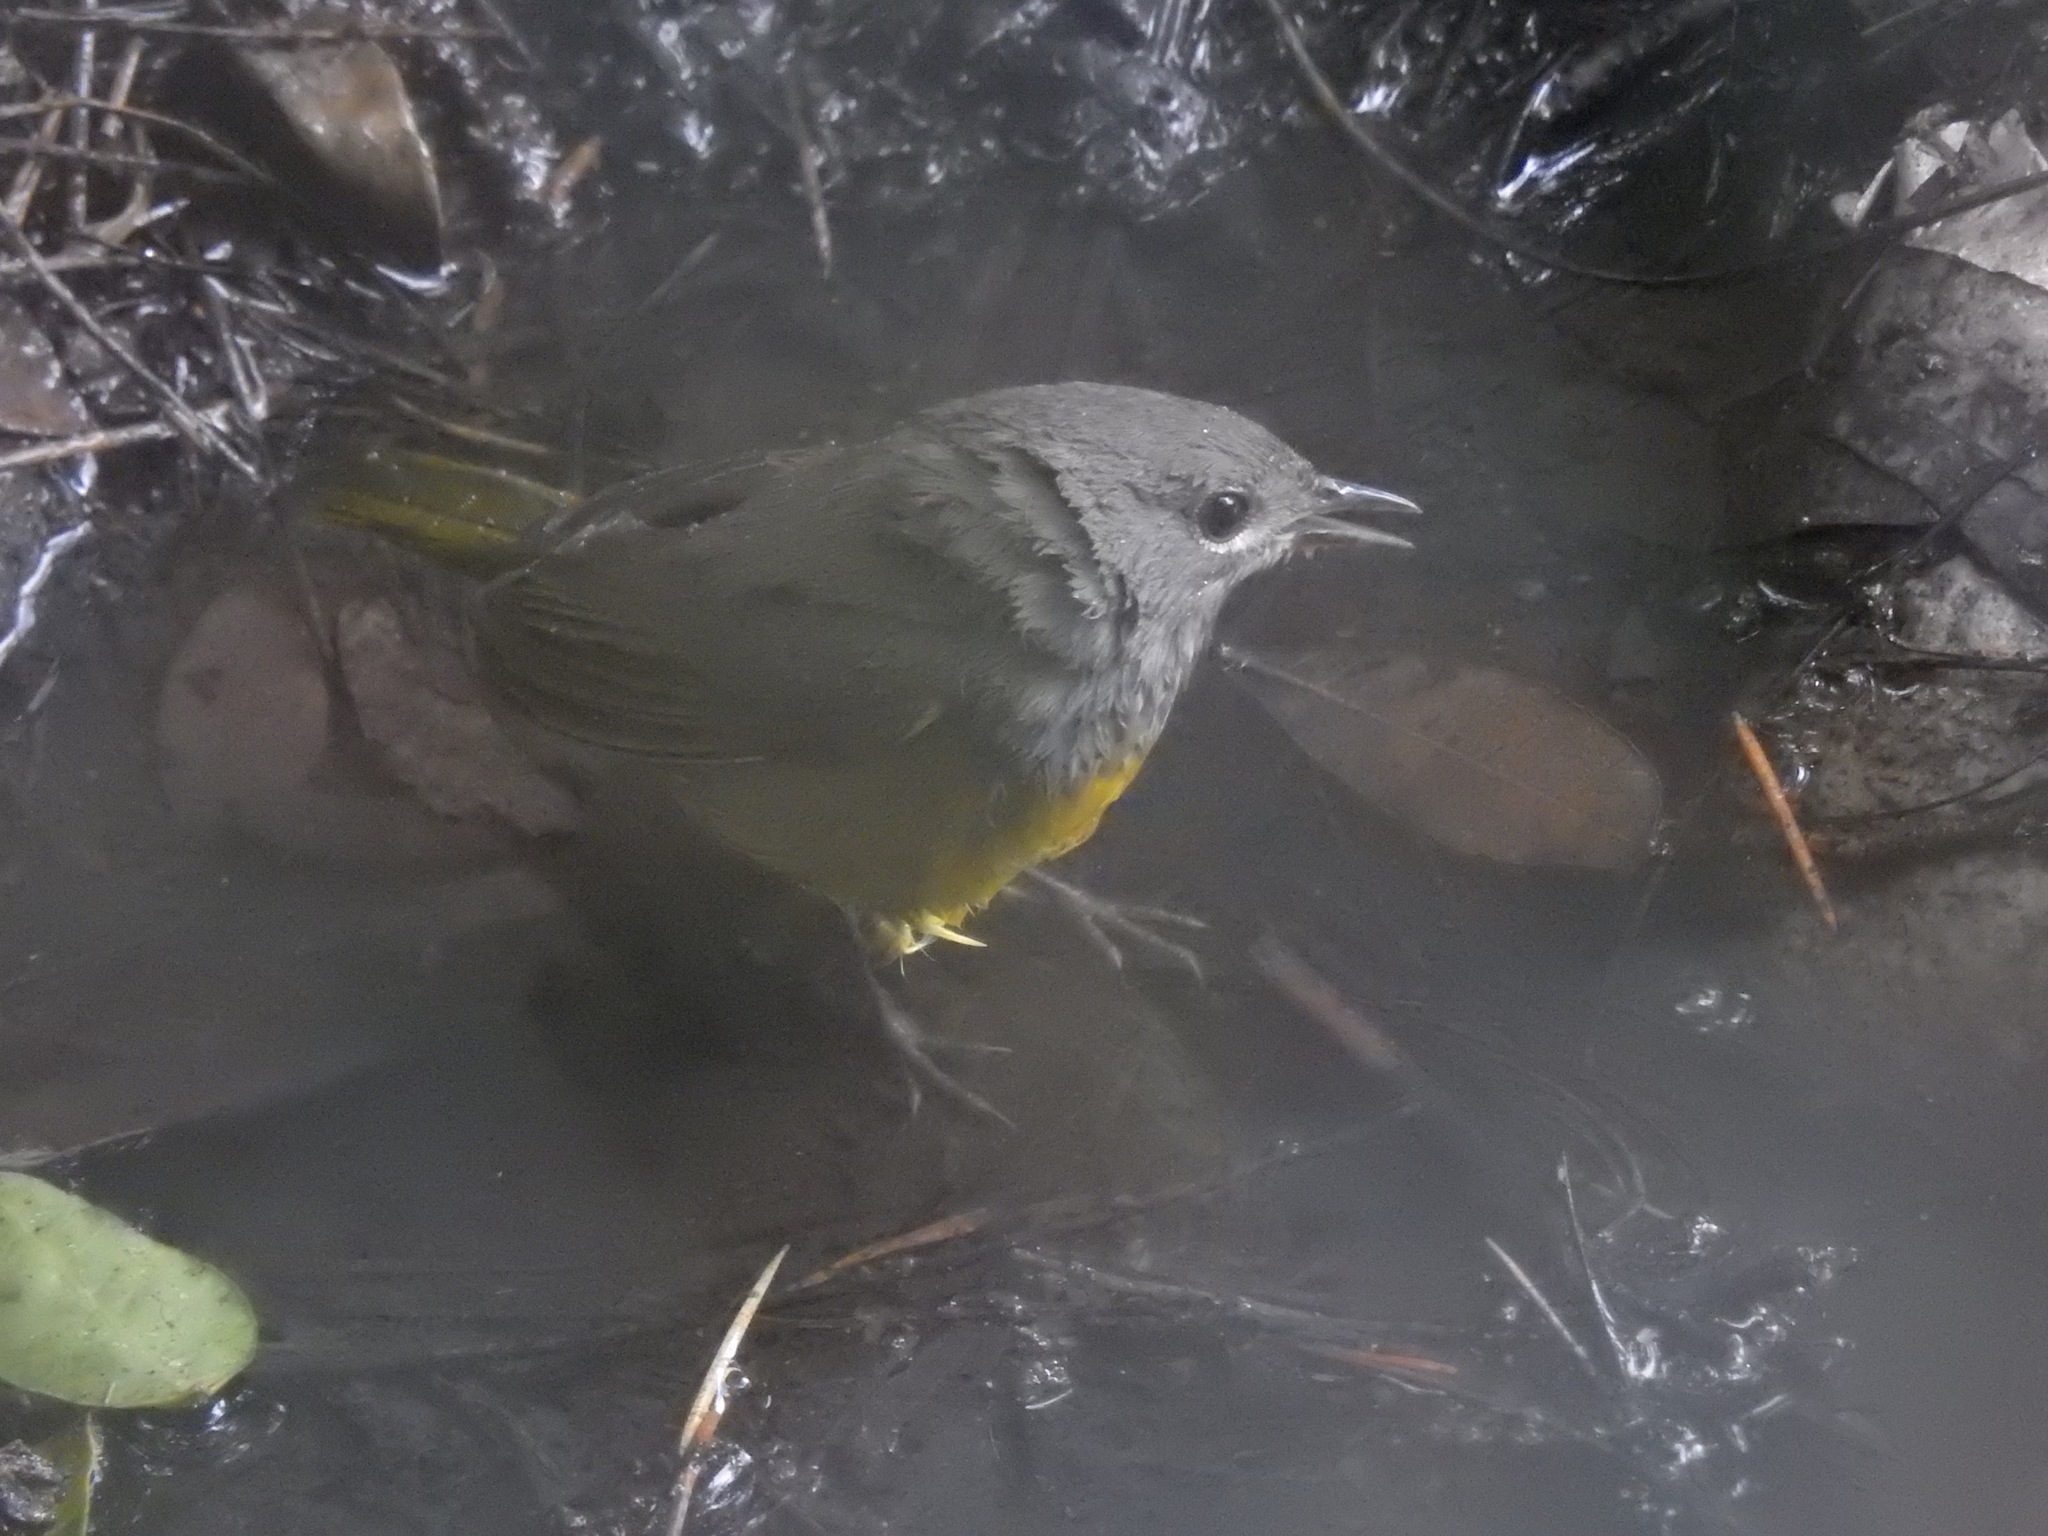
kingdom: Animalia
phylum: Chordata
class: Aves
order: Passeriformes
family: Parulidae
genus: Geothlypis
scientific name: Geothlypis tolmiei
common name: Macgillivray's warbler
